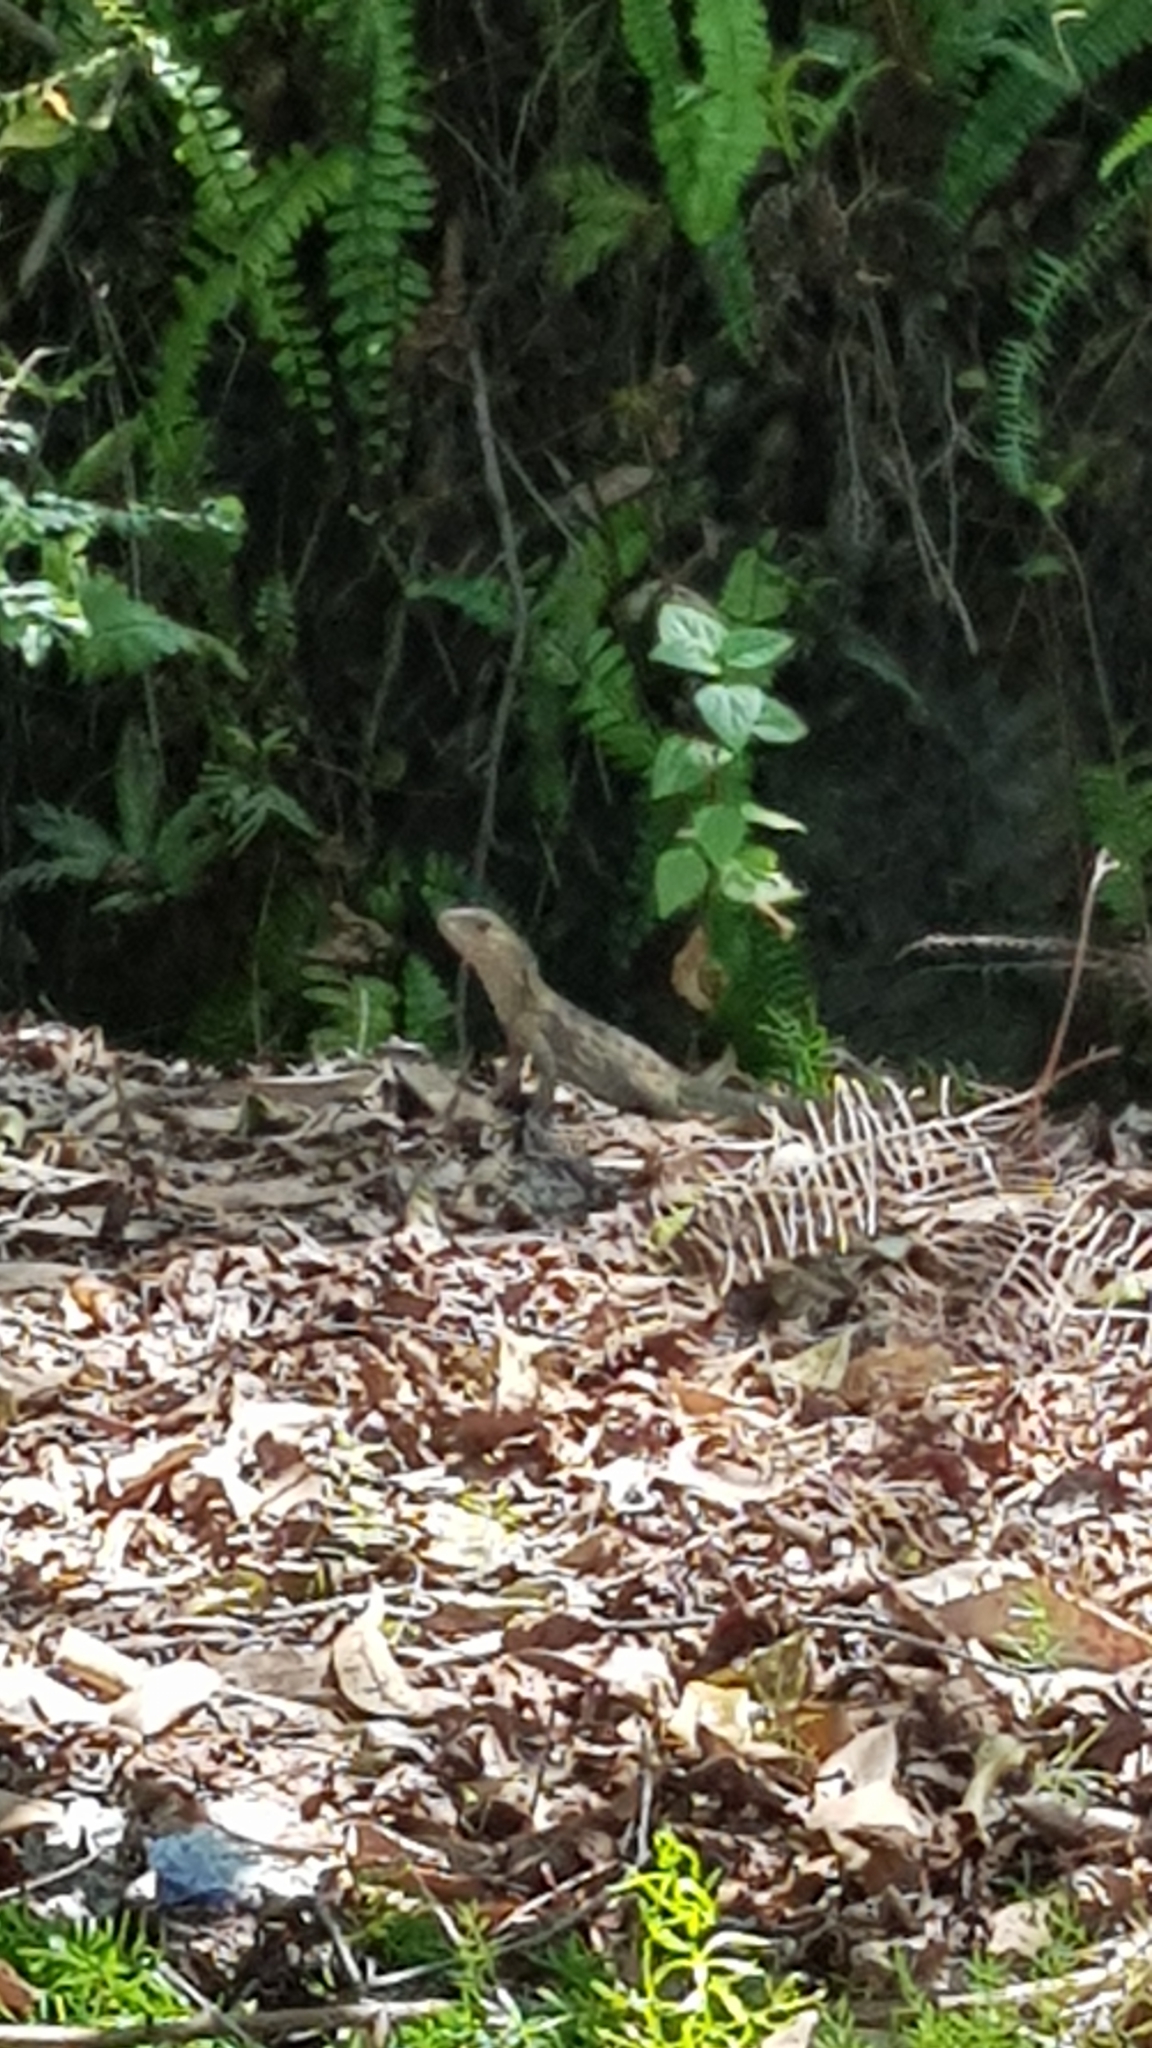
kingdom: Animalia
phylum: Chordata
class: Squamata
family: Agamidae
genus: Intellagama
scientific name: Intellagama lesueurii
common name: Eastern water dragon
